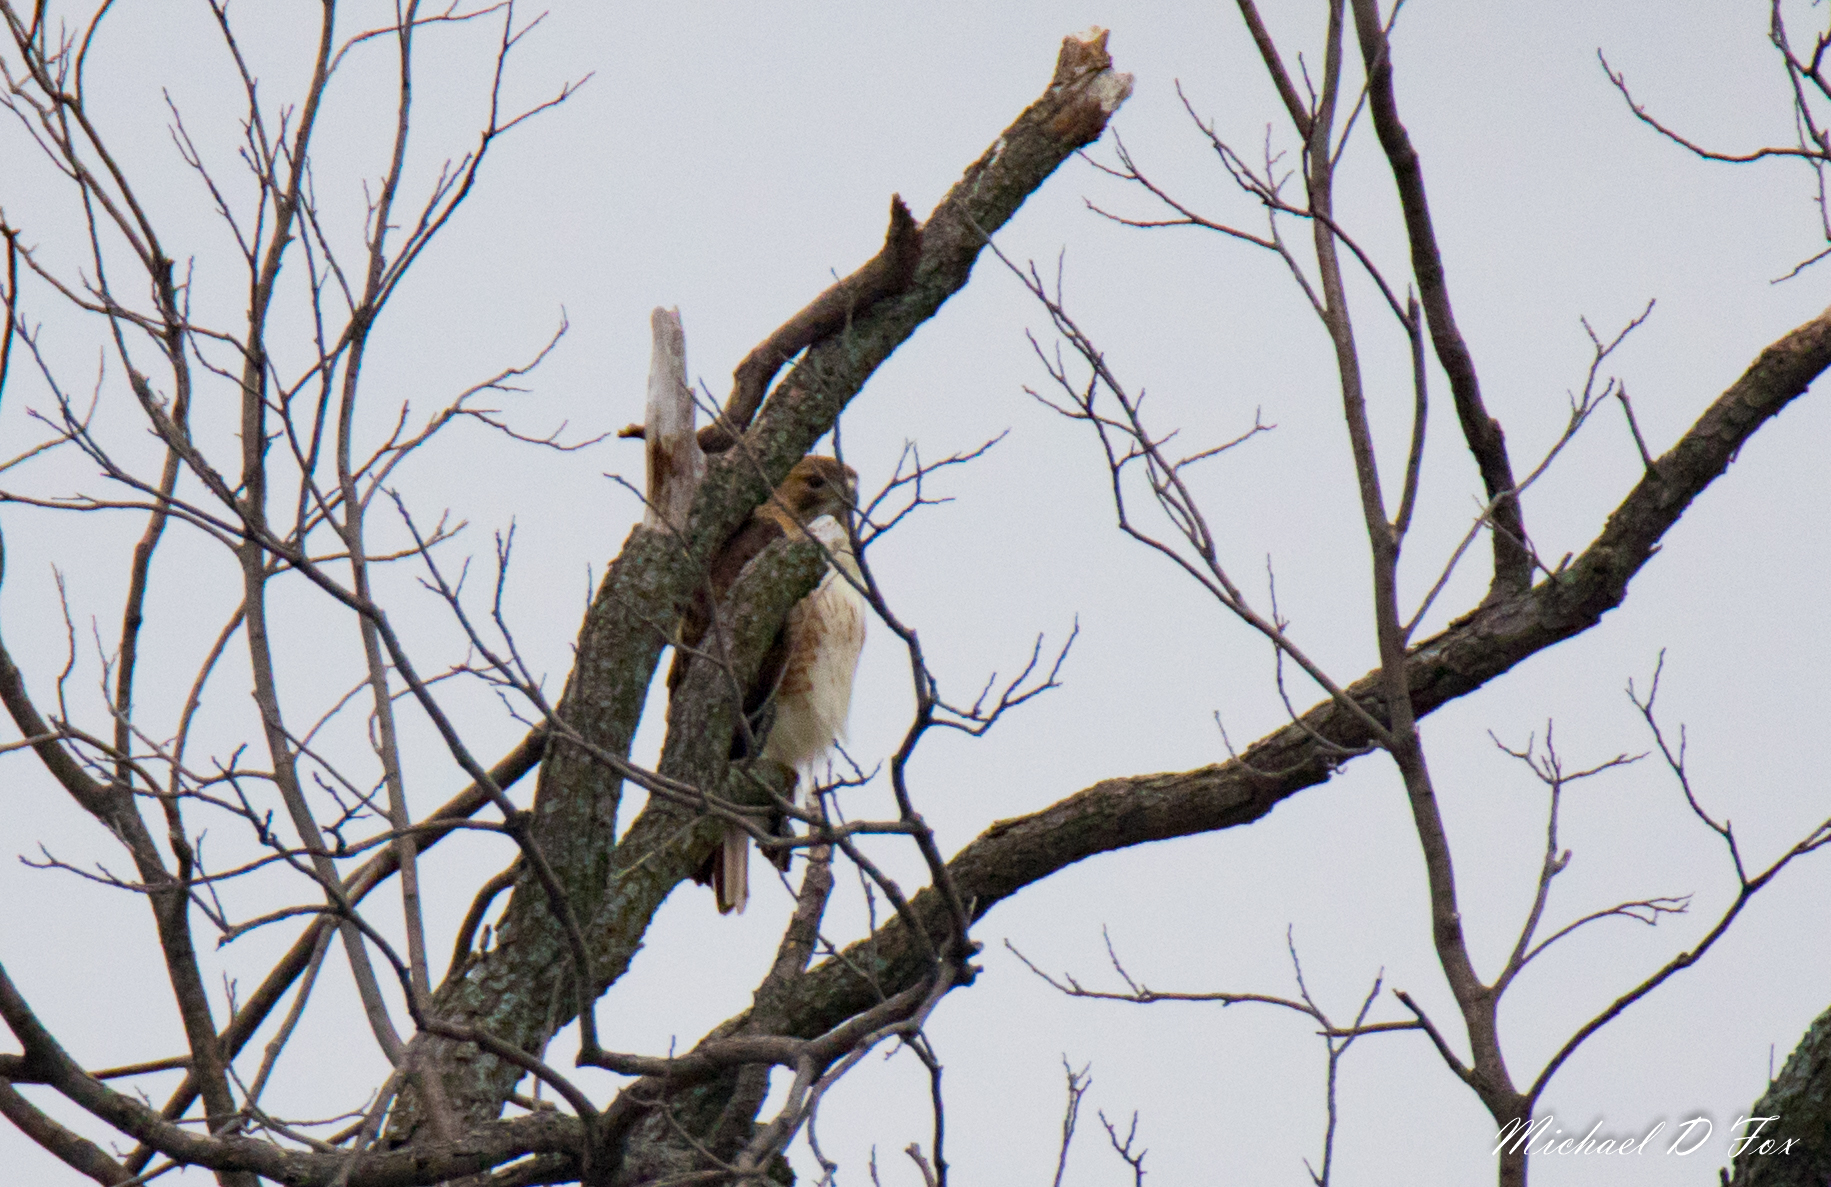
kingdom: Animalia
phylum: Chordata
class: Aves
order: Accipitriformes
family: Accipitridae
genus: Buteo
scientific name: Buteo jamaicensis
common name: Red-tailed hawk
